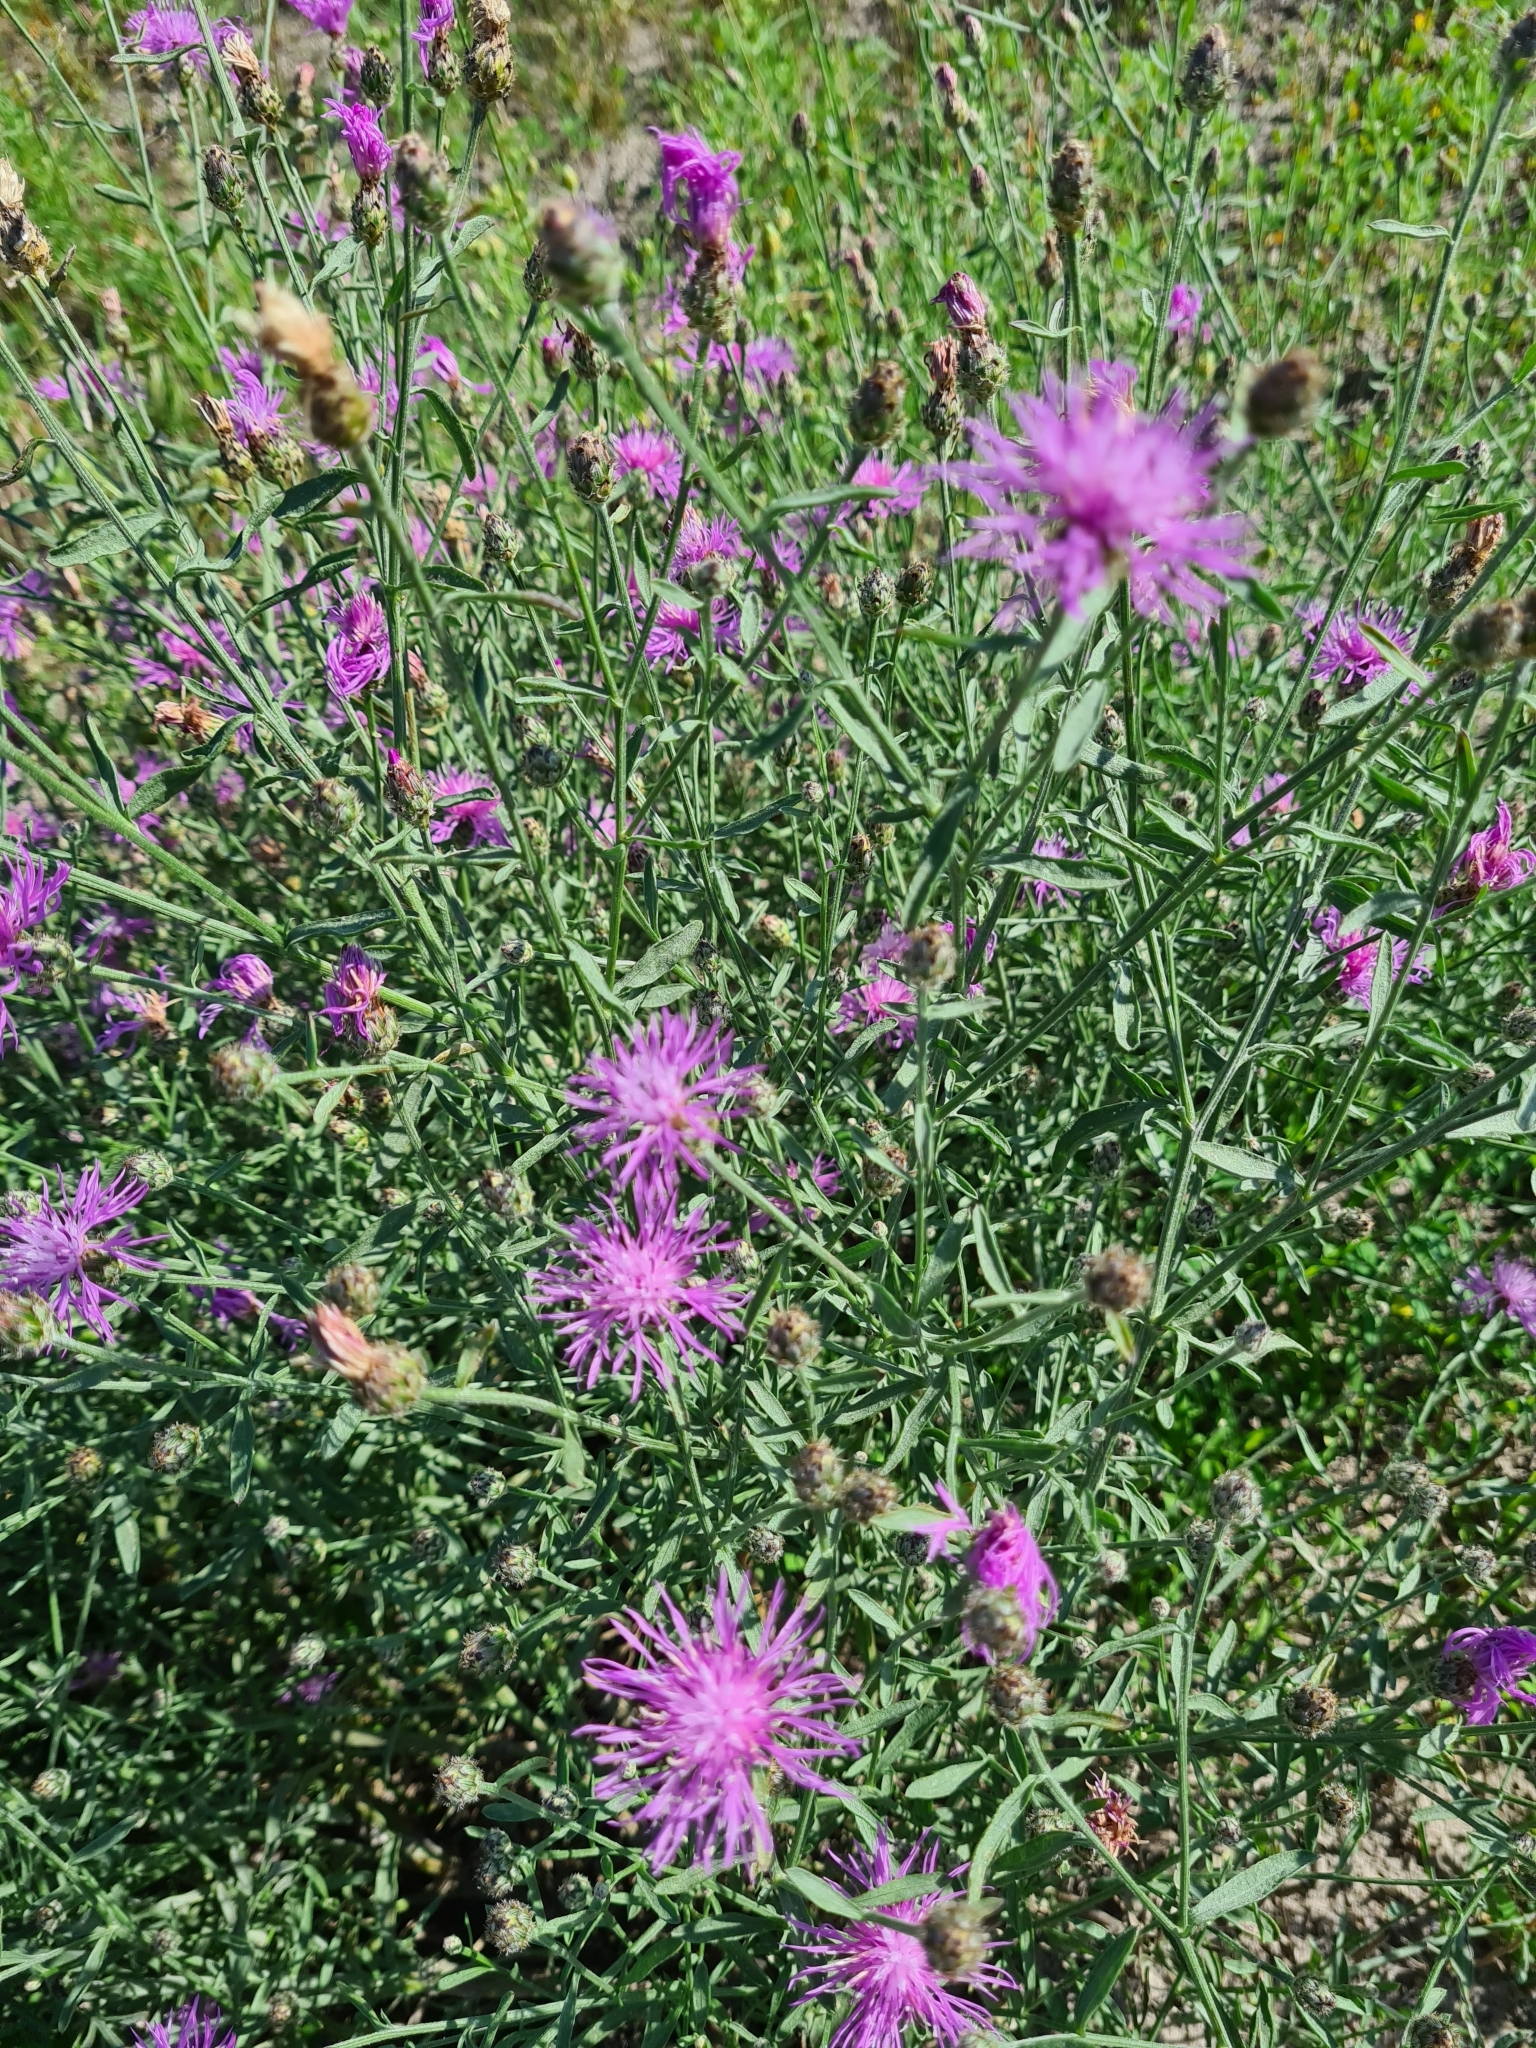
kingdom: Plantae
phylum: Tracheophyta
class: Magnoliopsida
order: Asterales
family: Asteraceae
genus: Centaurea
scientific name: Centaurea stoebe
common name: Spotted knapweed
